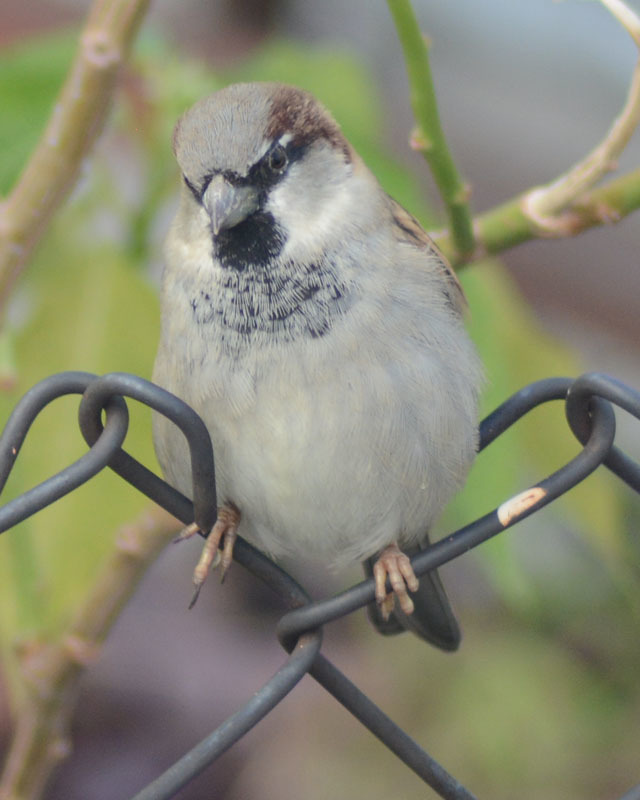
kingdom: Animalia
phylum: Chordata
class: Aves
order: Passeriformes
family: Passeridae
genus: Passer
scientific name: Passer domesticus
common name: House sparrow
